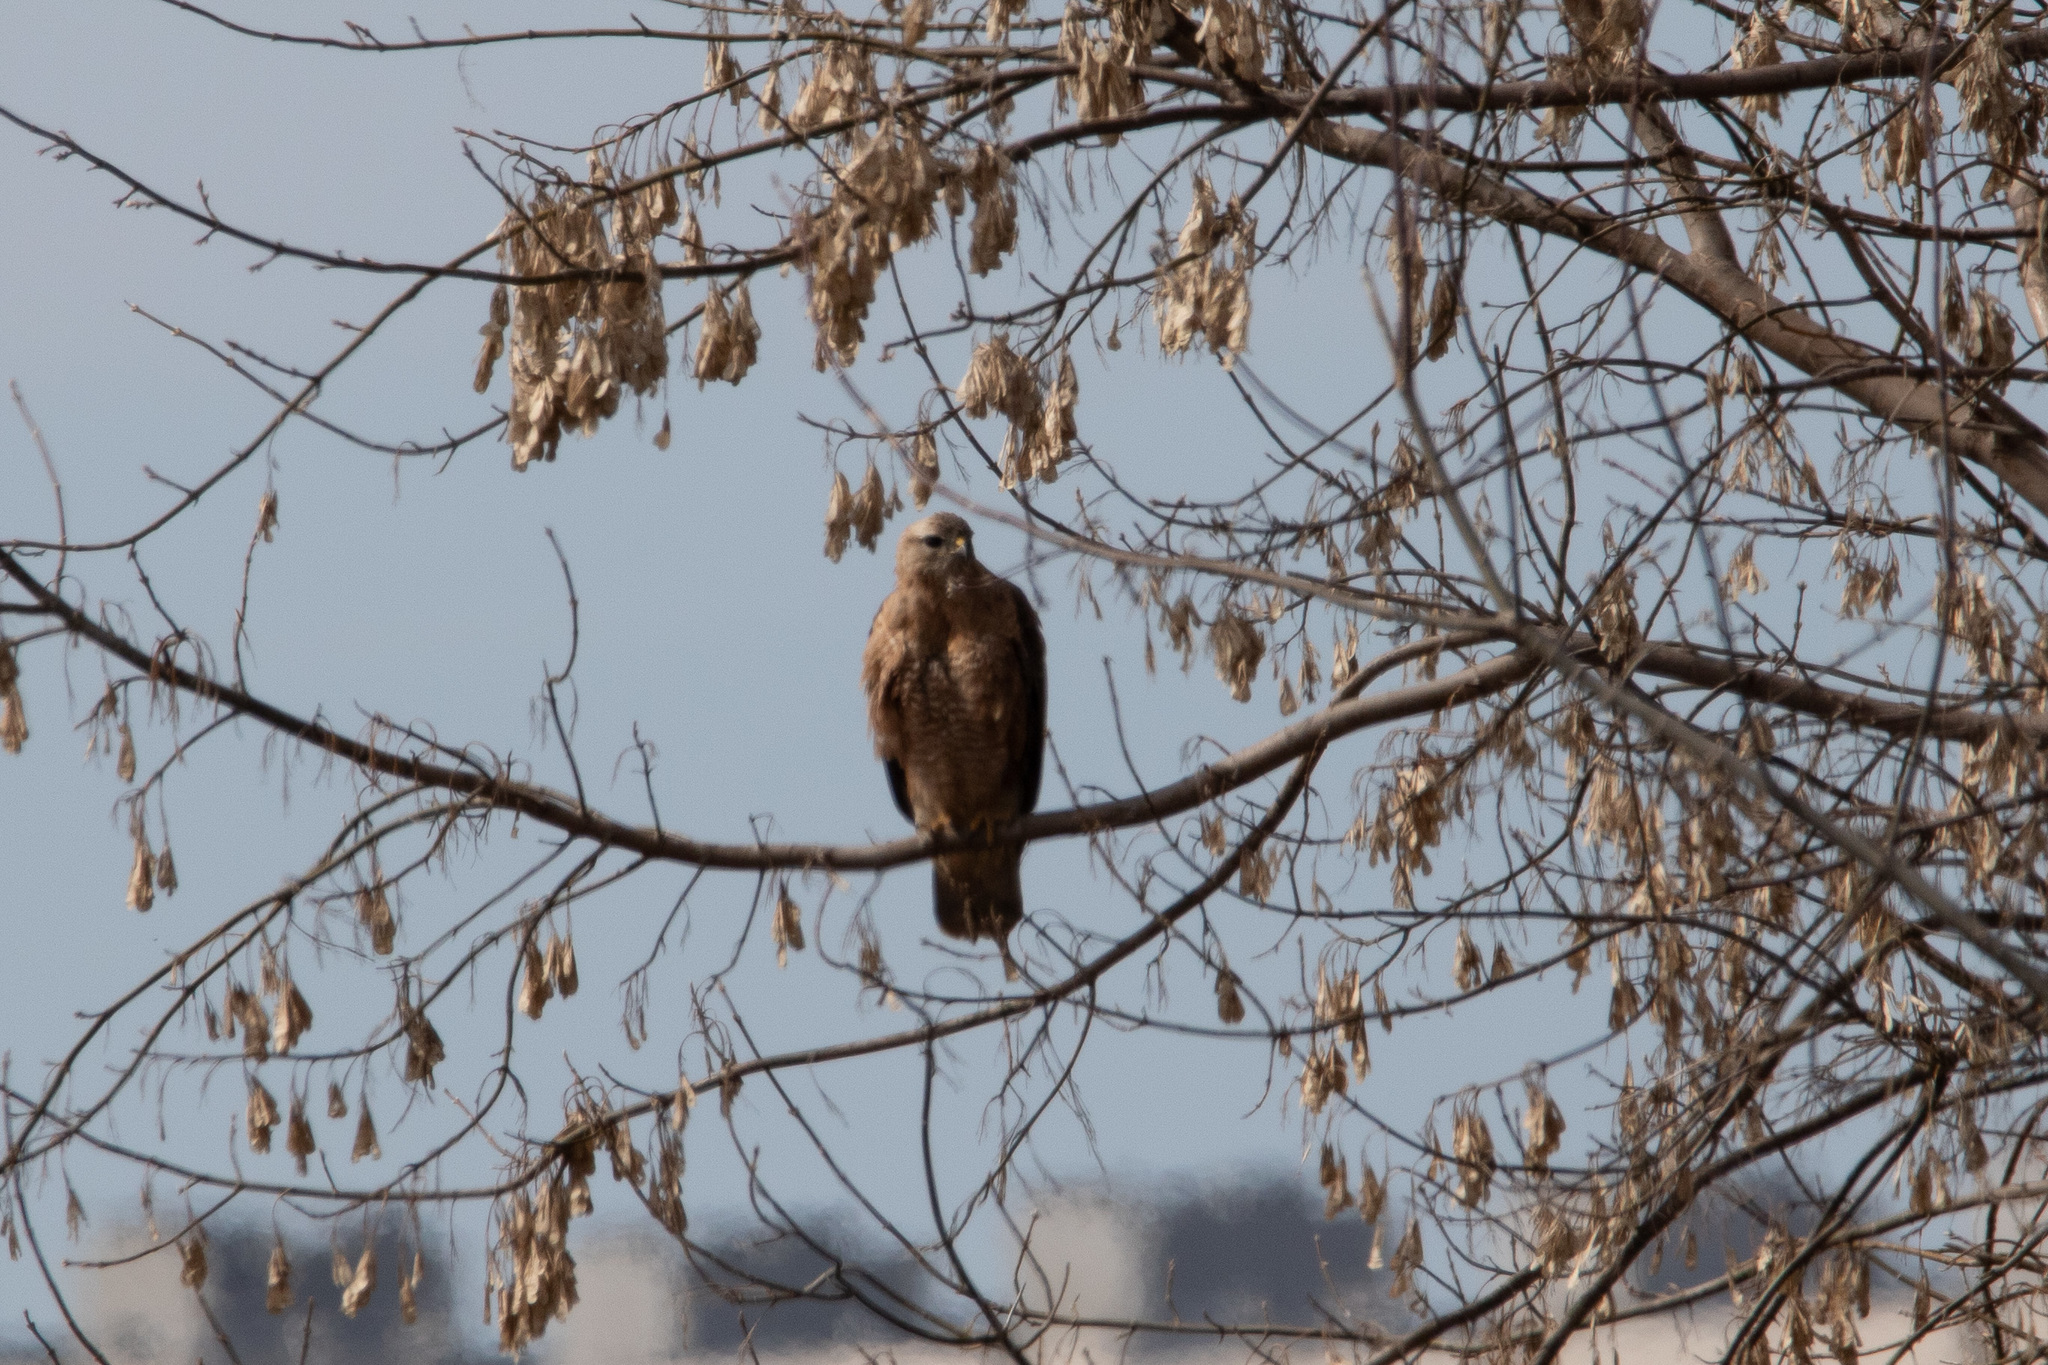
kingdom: Animalia
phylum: Chordata
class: Aves
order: Accipitriformes
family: Accipitridae
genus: Buteo
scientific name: Buteo buteo
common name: Common buzzard
